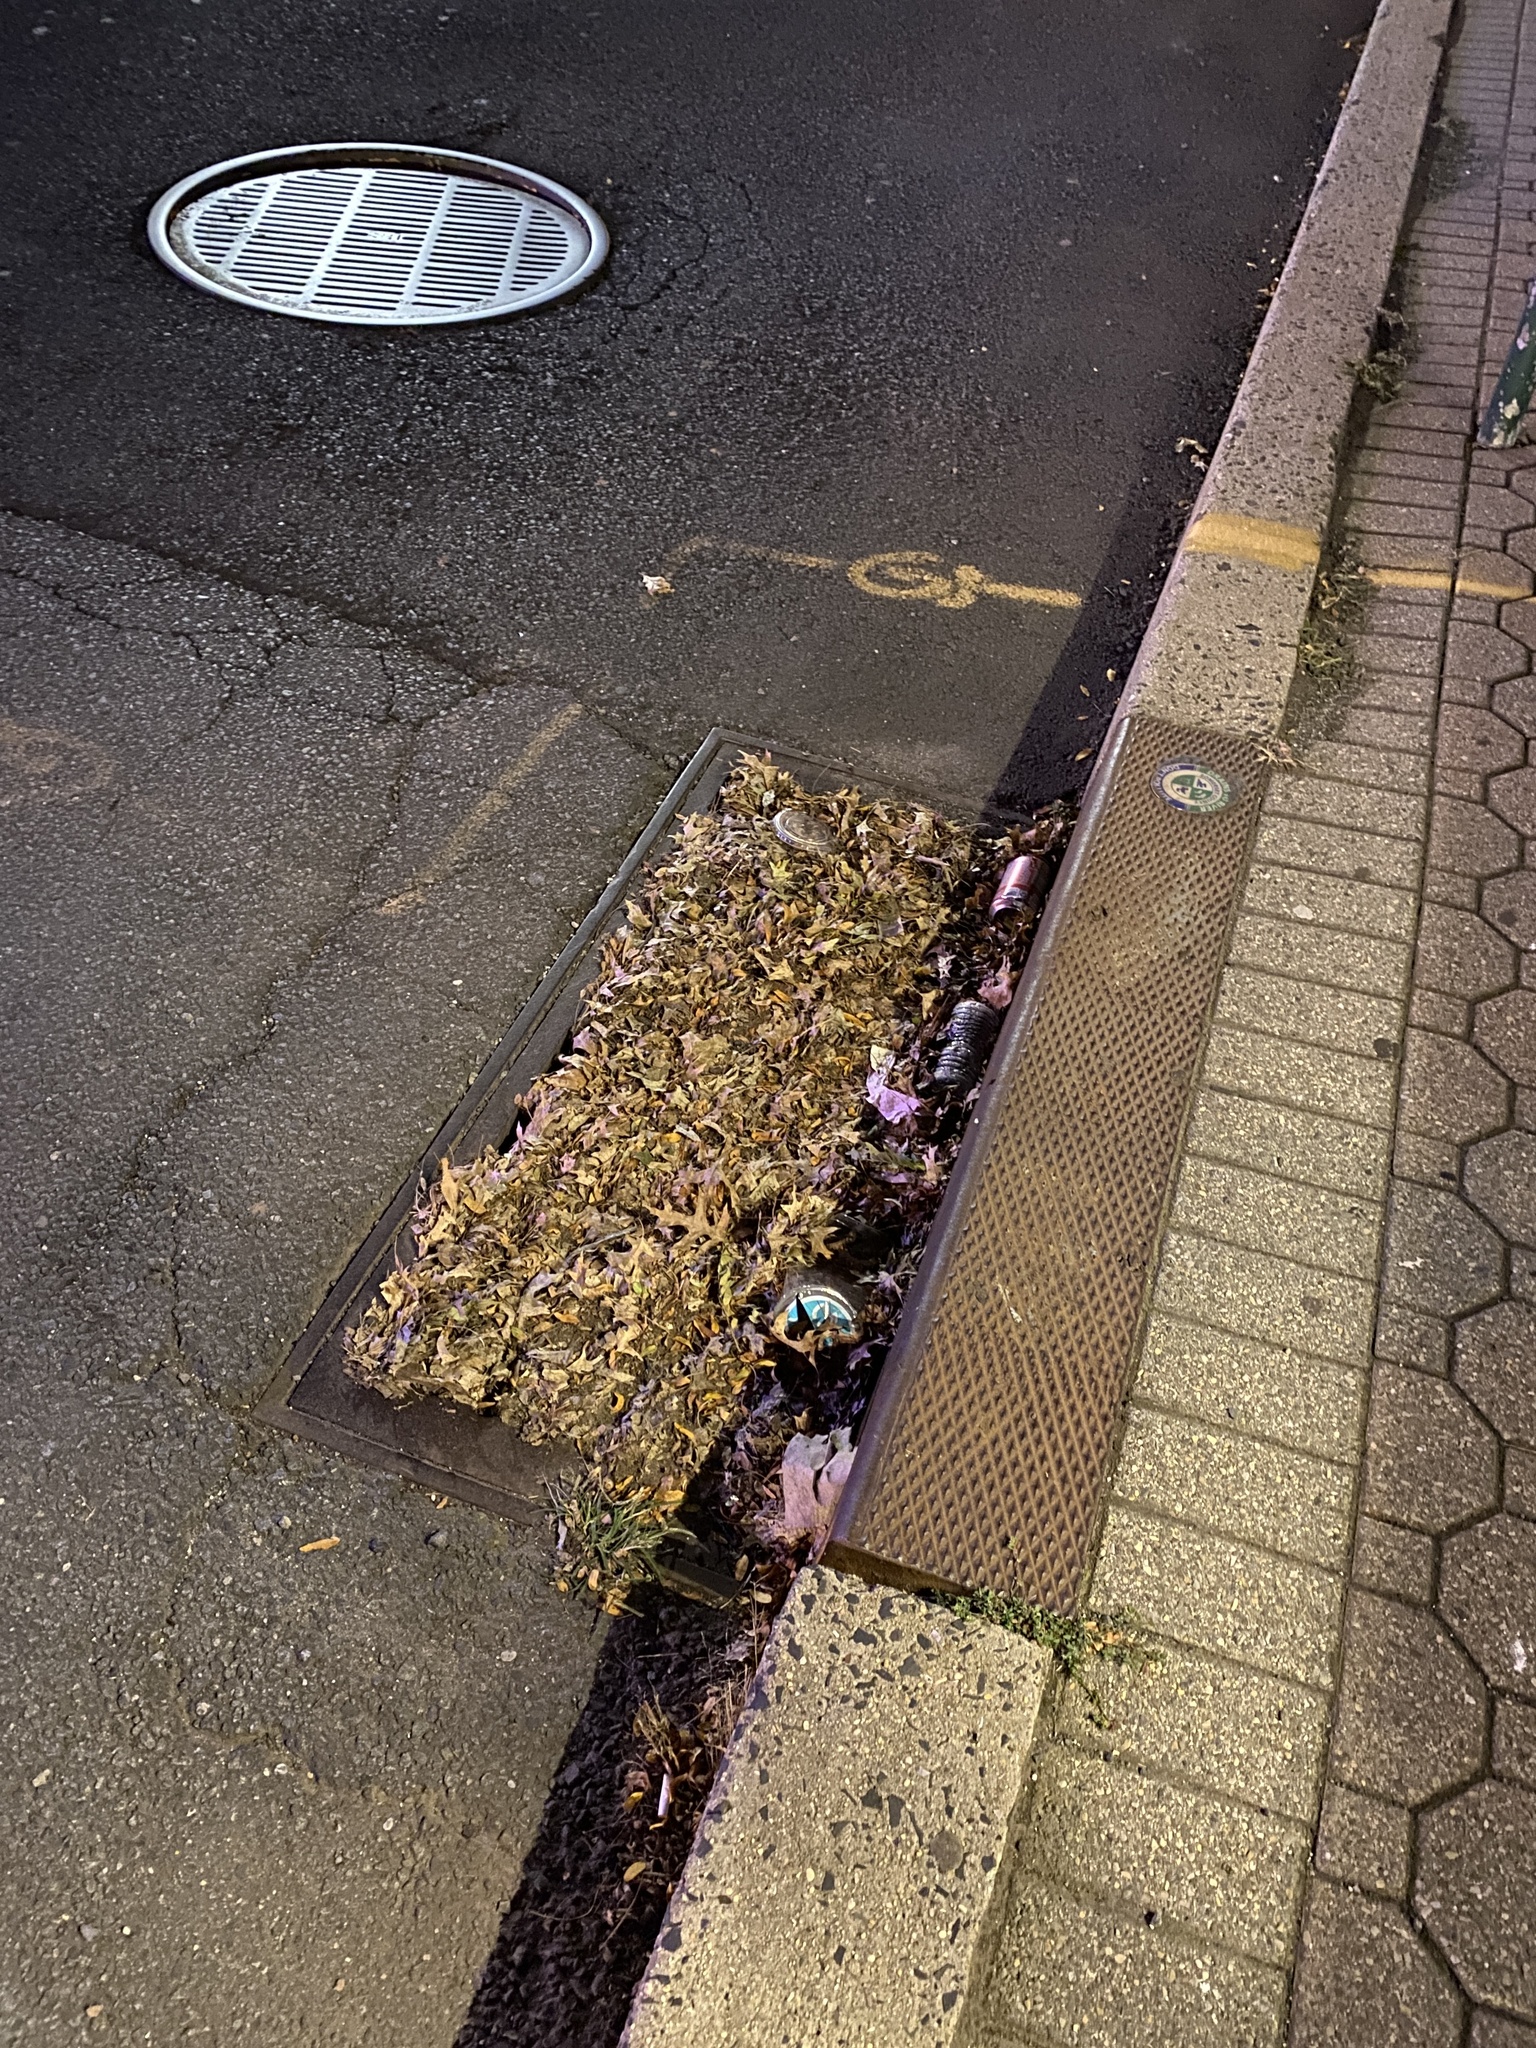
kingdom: Plantae
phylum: Tracheophyta
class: Magnoliopsida
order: Fagales
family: Fagaceae
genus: Quercus
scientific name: Quercus palustris
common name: Pin oak
